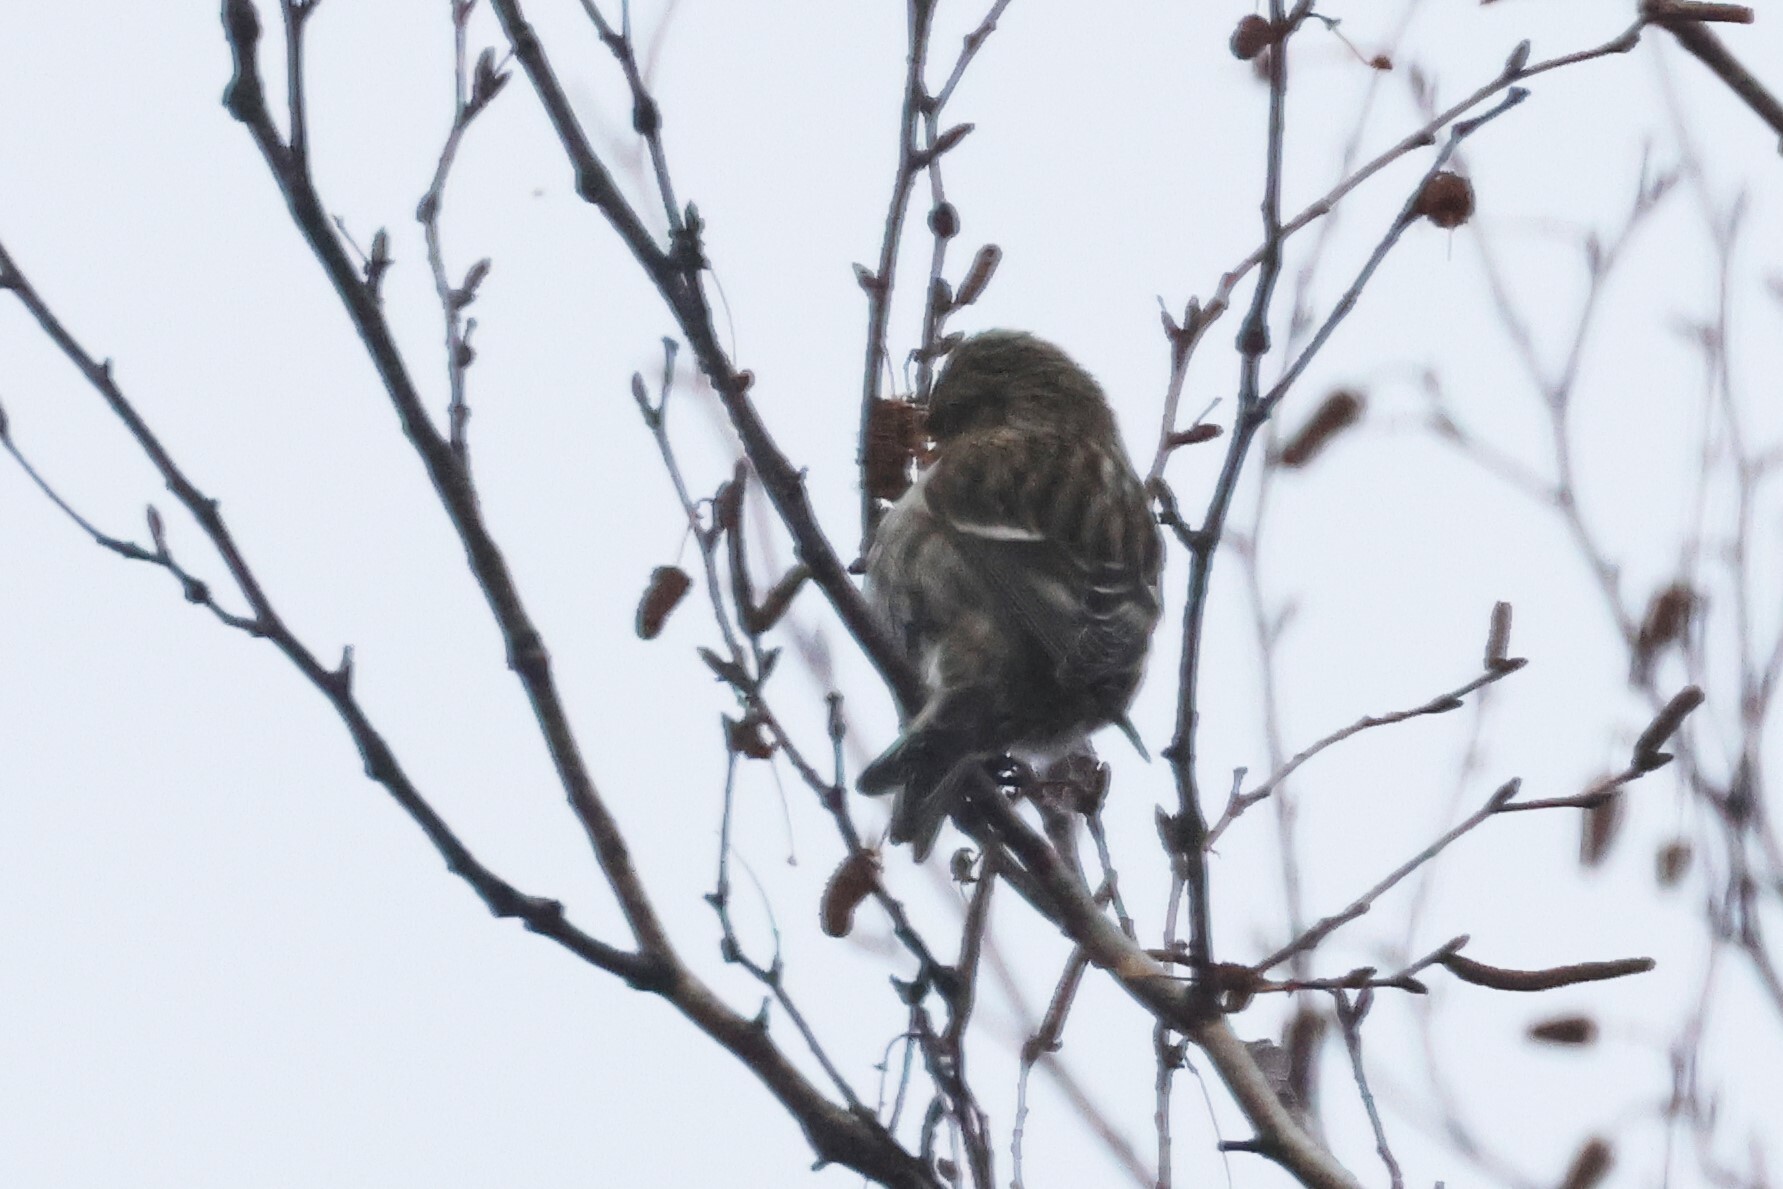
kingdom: Animalia
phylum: Chordata
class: Aves
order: Passeriformes
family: Fringillidae
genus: Acanthis
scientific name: Acanthis flammea
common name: Common redpoll
